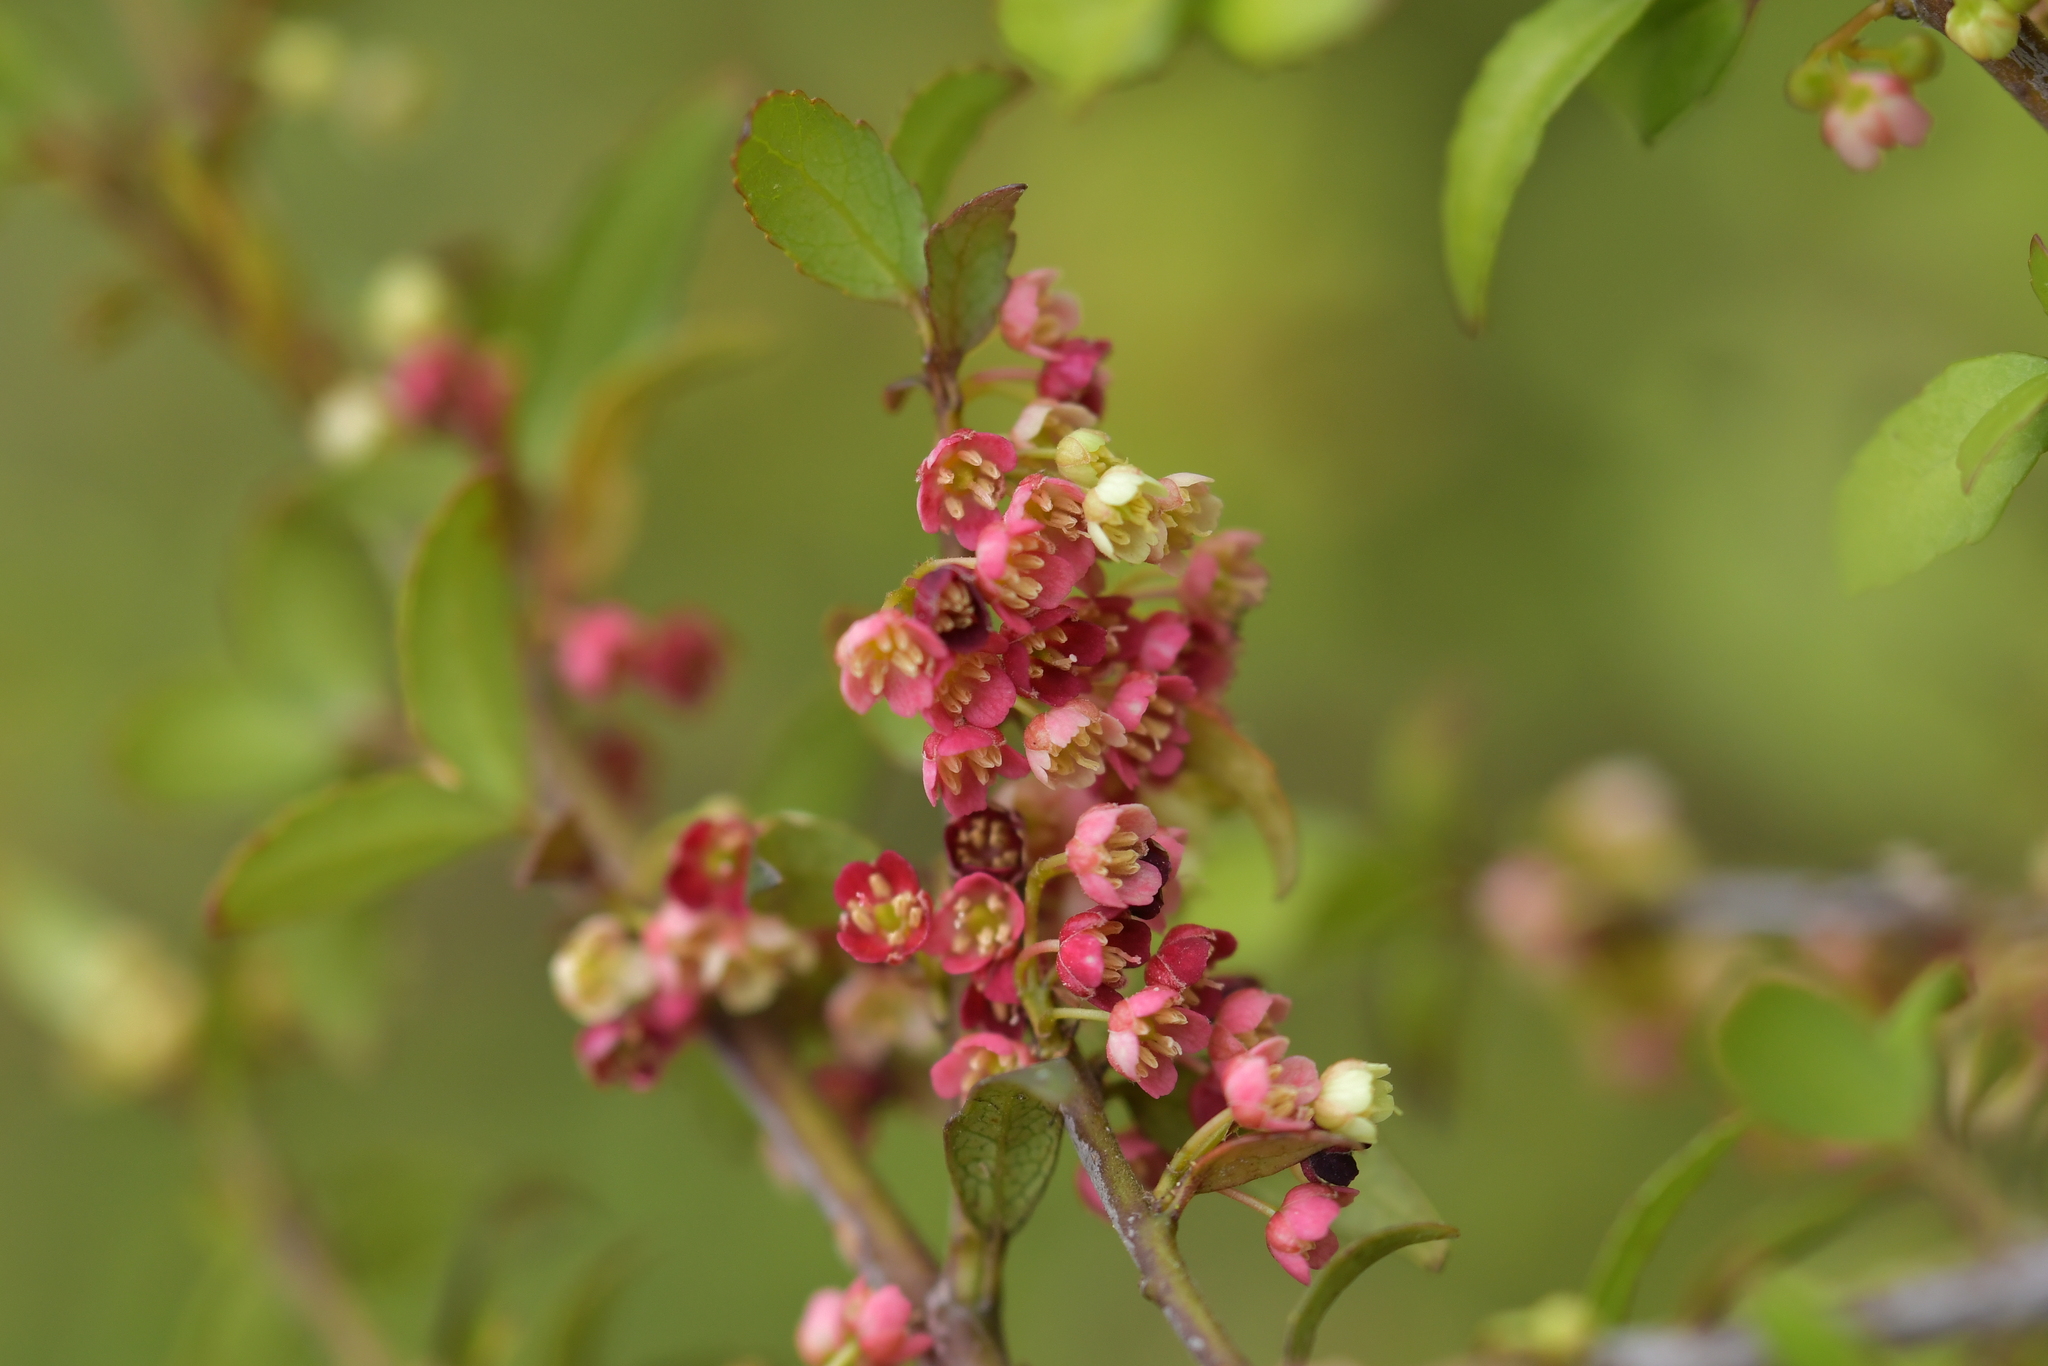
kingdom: Plantae
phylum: Tracheophyta
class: Magnoliopsida
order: Oxalidales
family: Elaeocarpaceae
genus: Aristotelia
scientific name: Aristotelia
